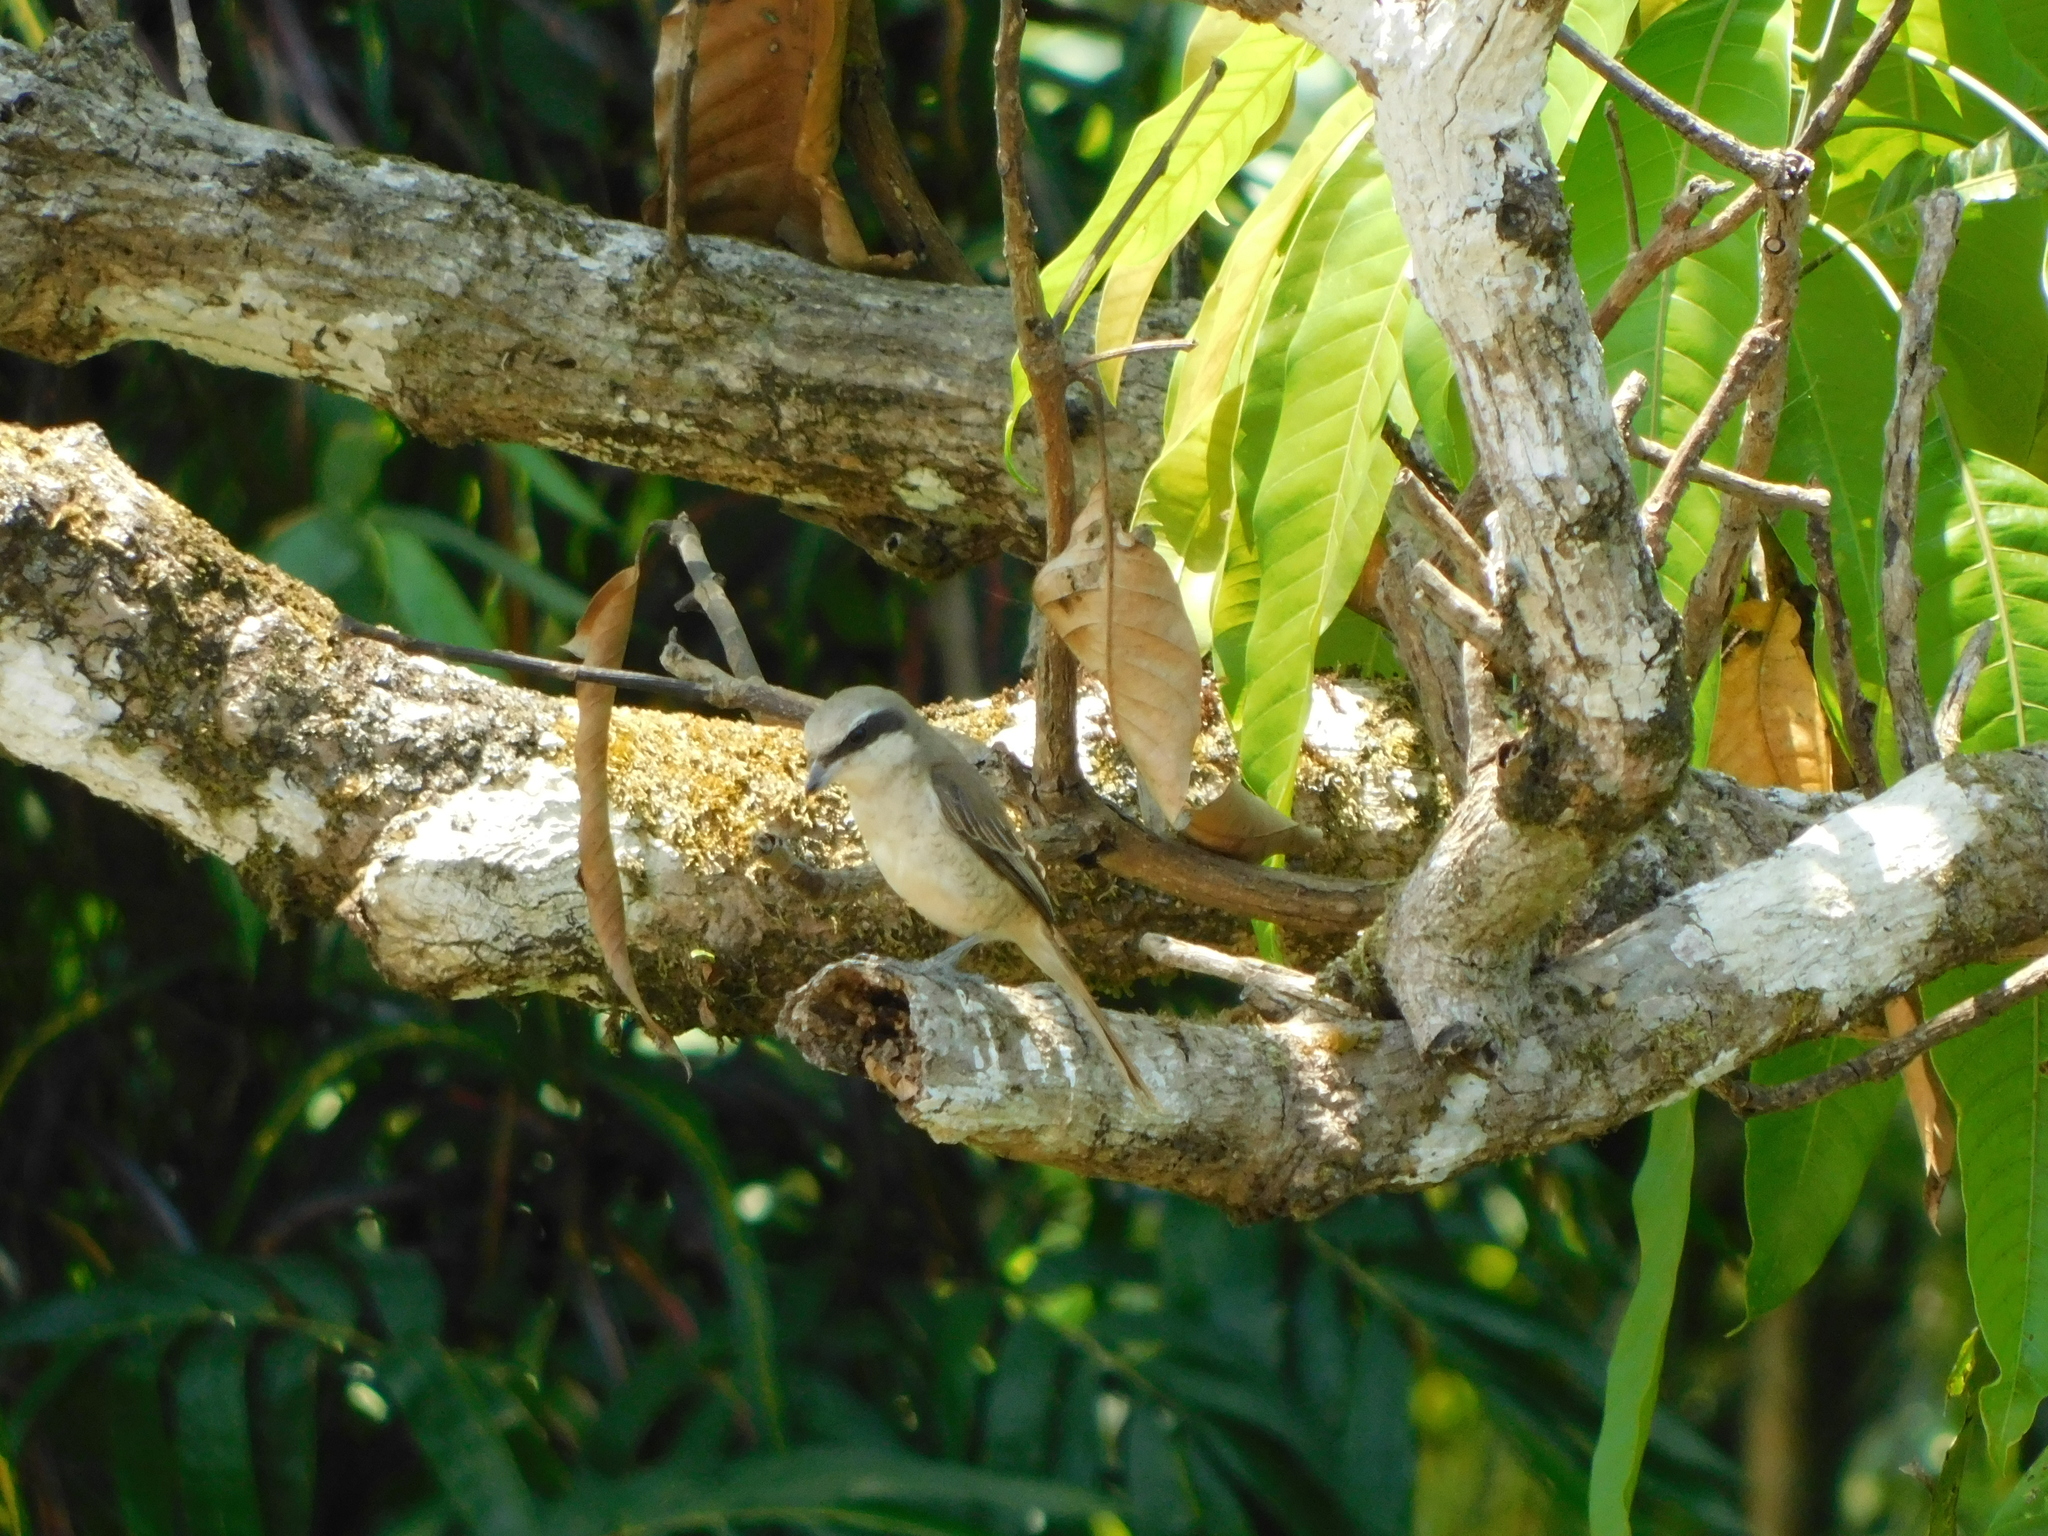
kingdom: Animalia
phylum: Chordata
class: Aves
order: Passeriformes
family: Laniidae
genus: Lanius
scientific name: Lanius cristatus
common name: Brown shrike
